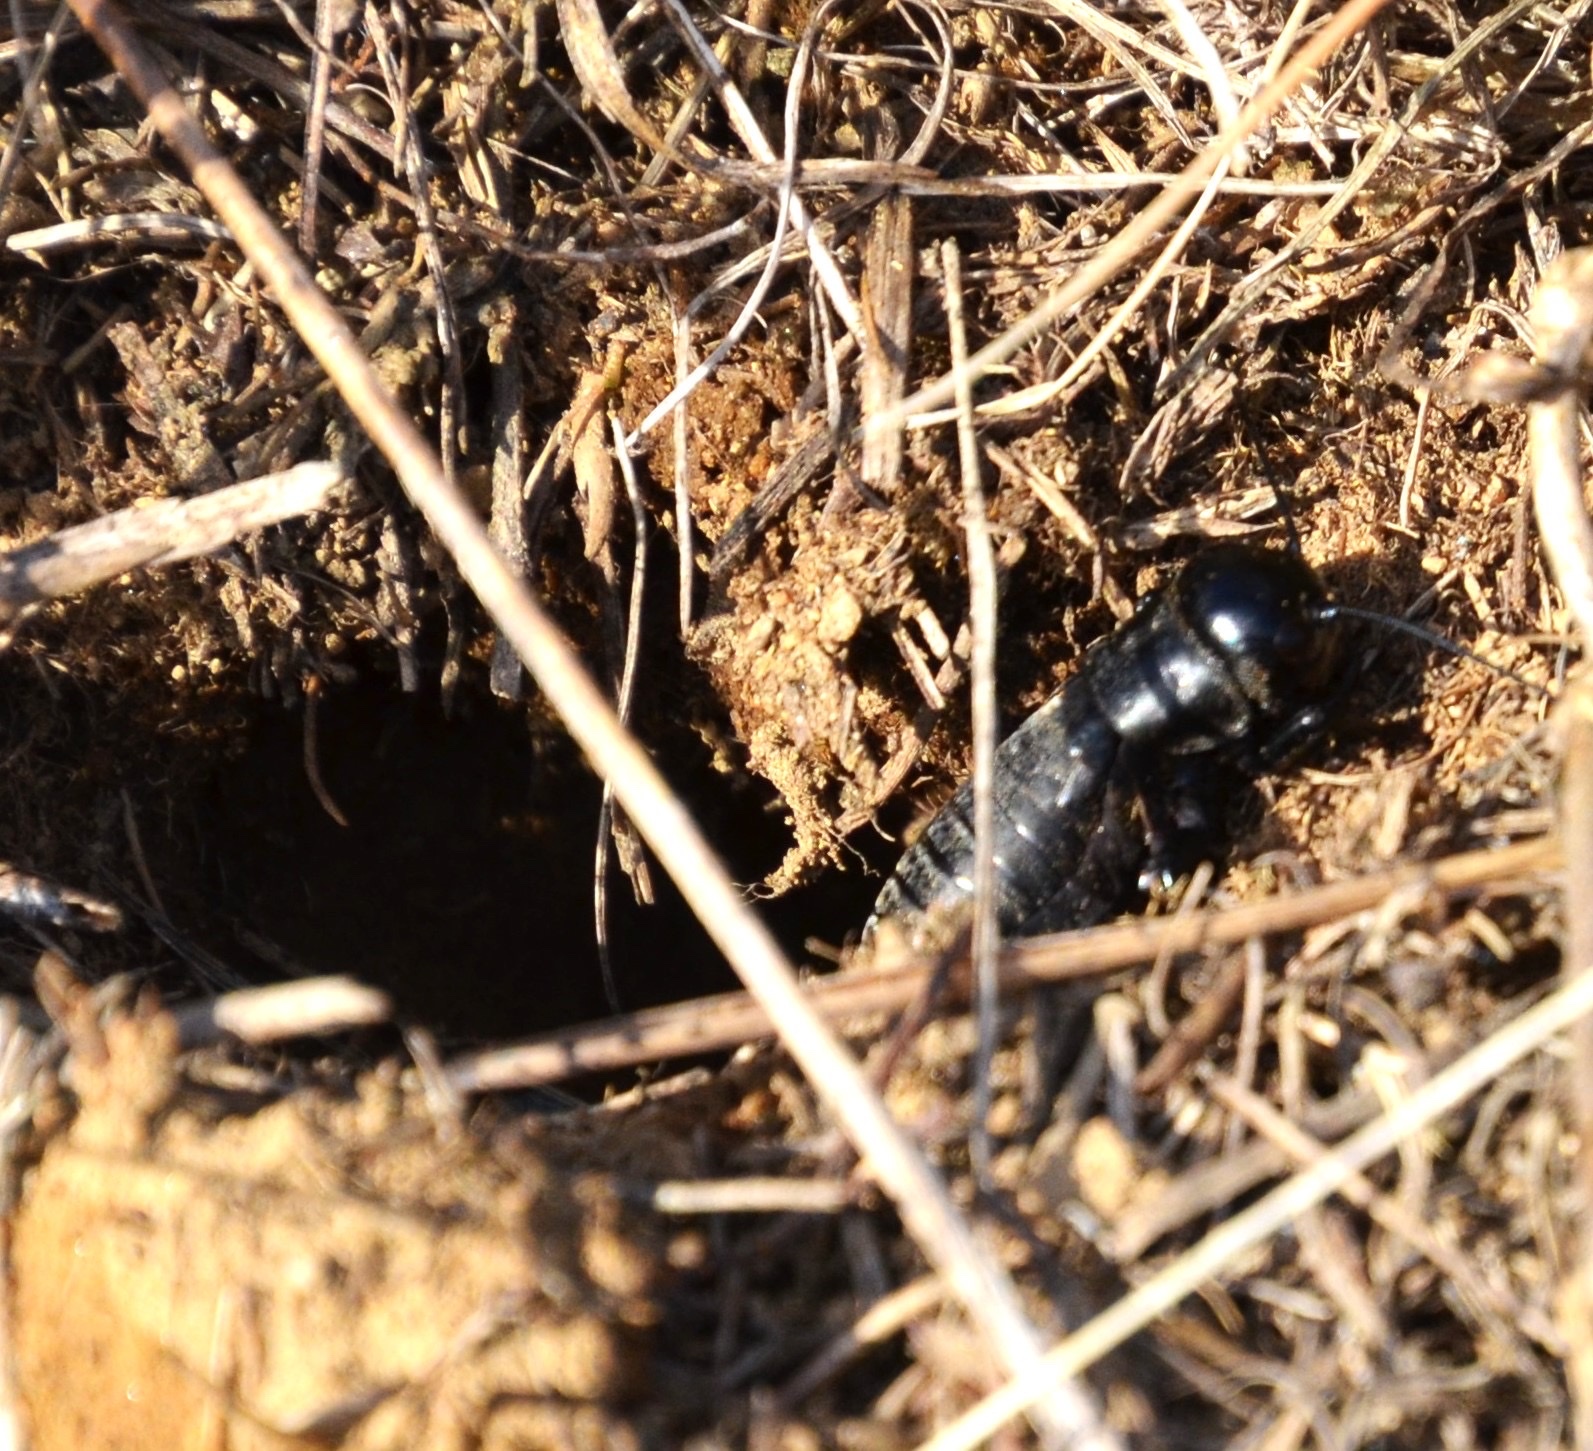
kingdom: Animalia
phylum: Arthropoda
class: Insecta
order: Orthoptera
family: Gryllidae
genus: Gryllus
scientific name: Gryllus campestris
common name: Field cricket
